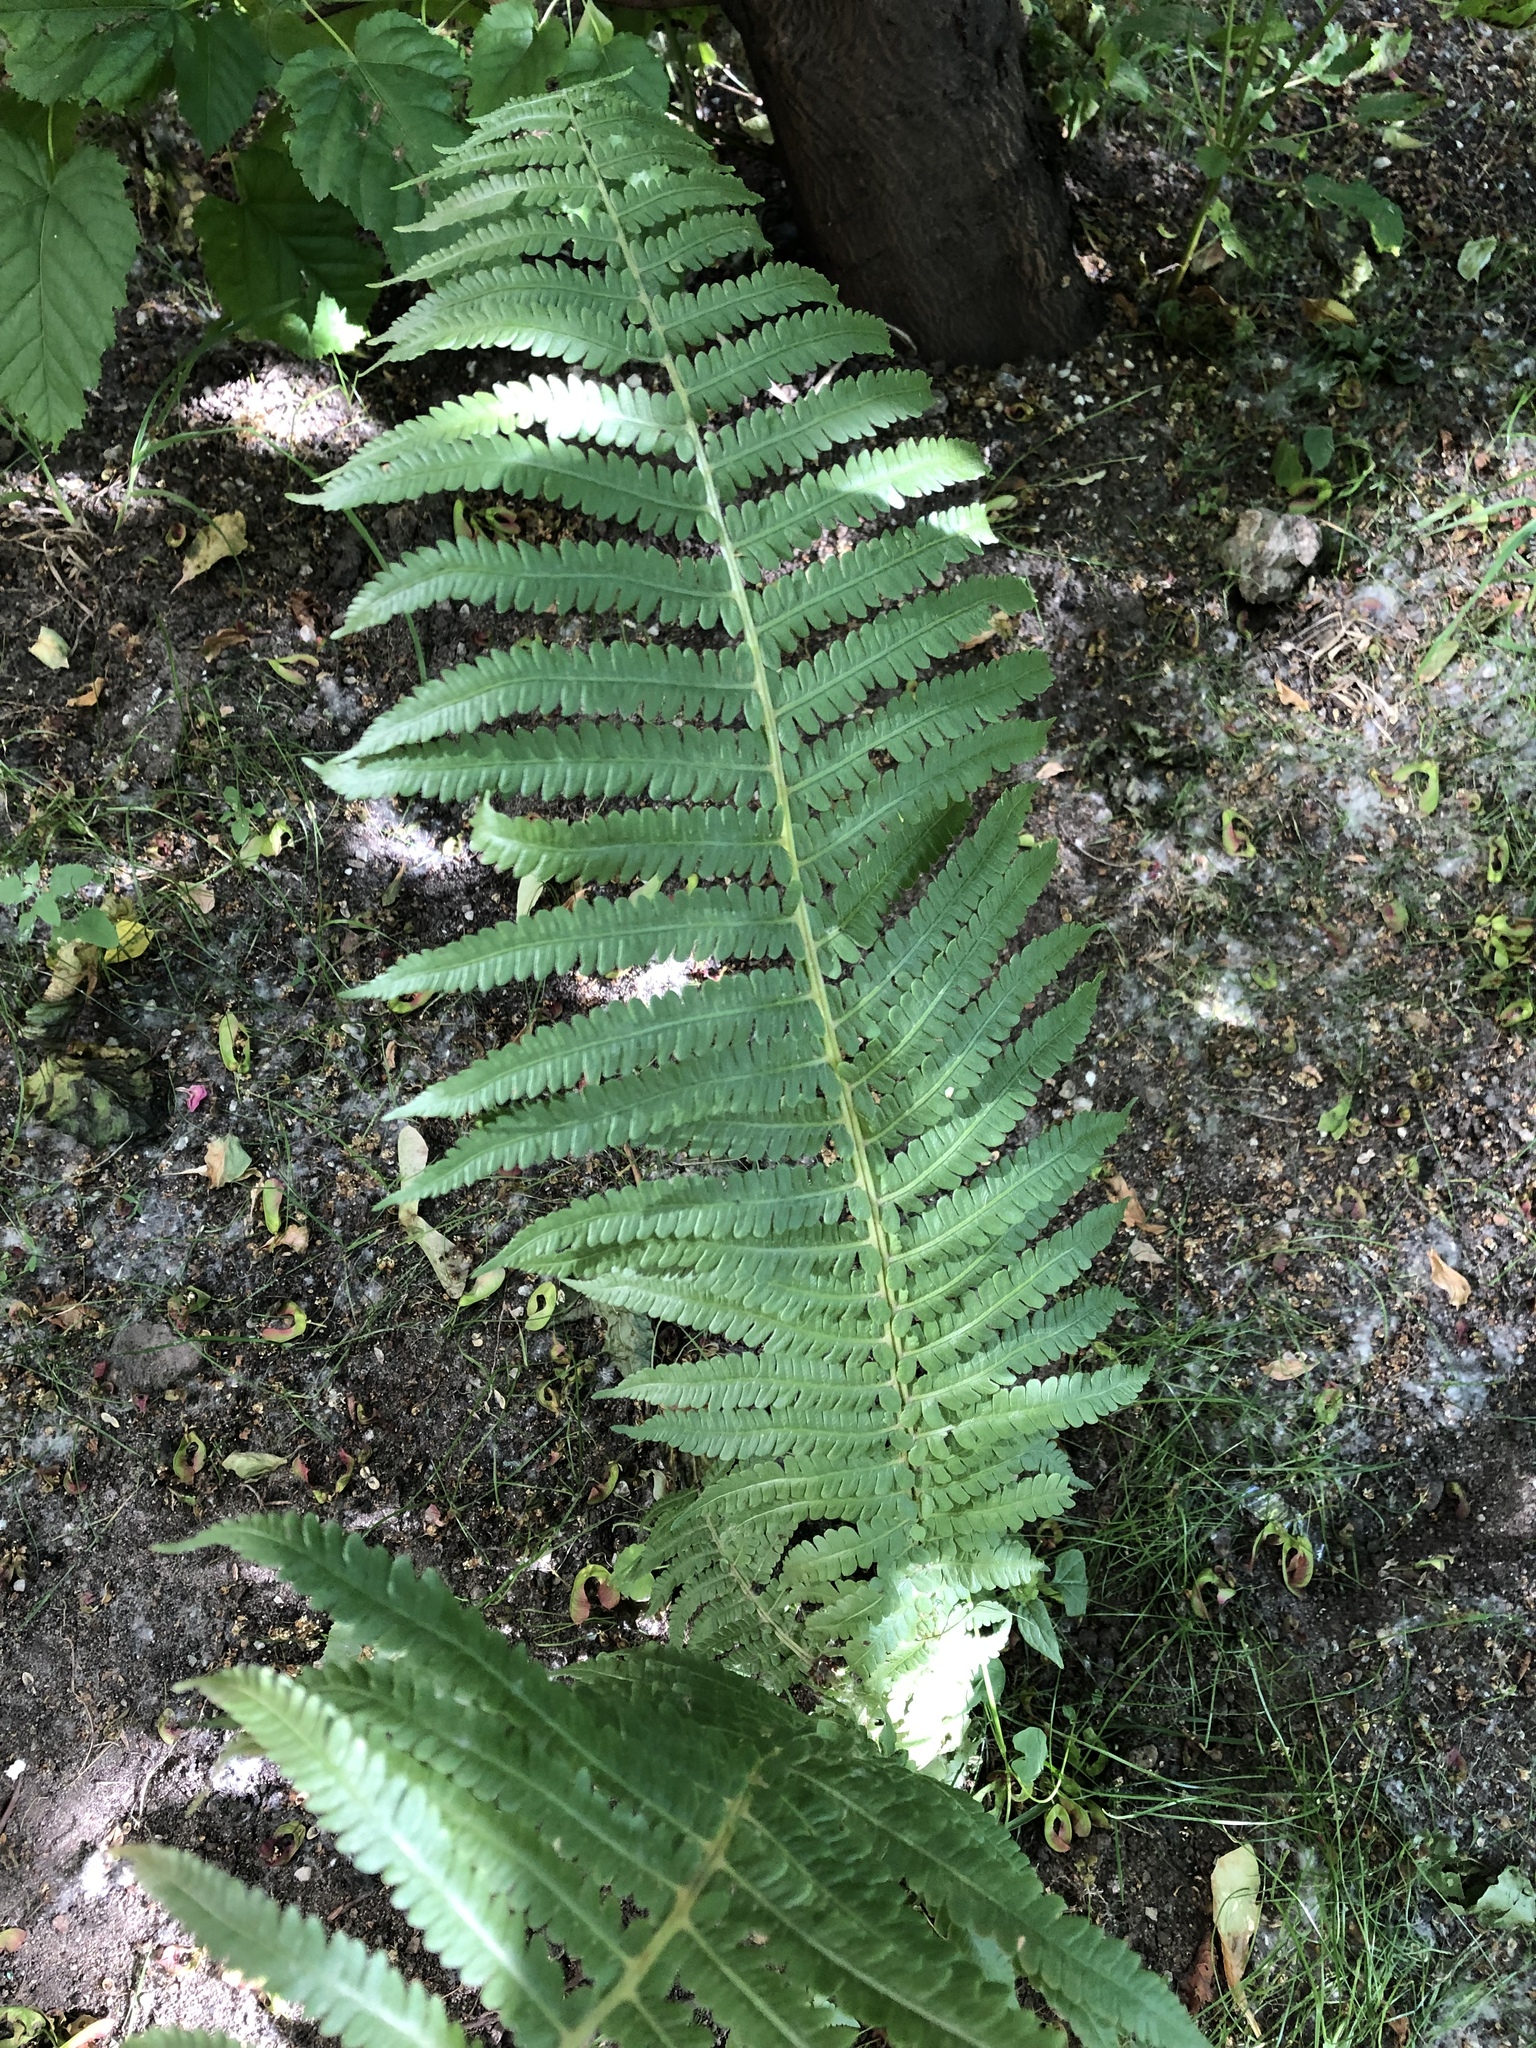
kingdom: Plantae
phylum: Tracheophyta
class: Polypodiopsida
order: Polypodiales
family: Onocleaceae
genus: Matteuccia
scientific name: Matteuccia struthiopteris
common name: Ostrich fern
